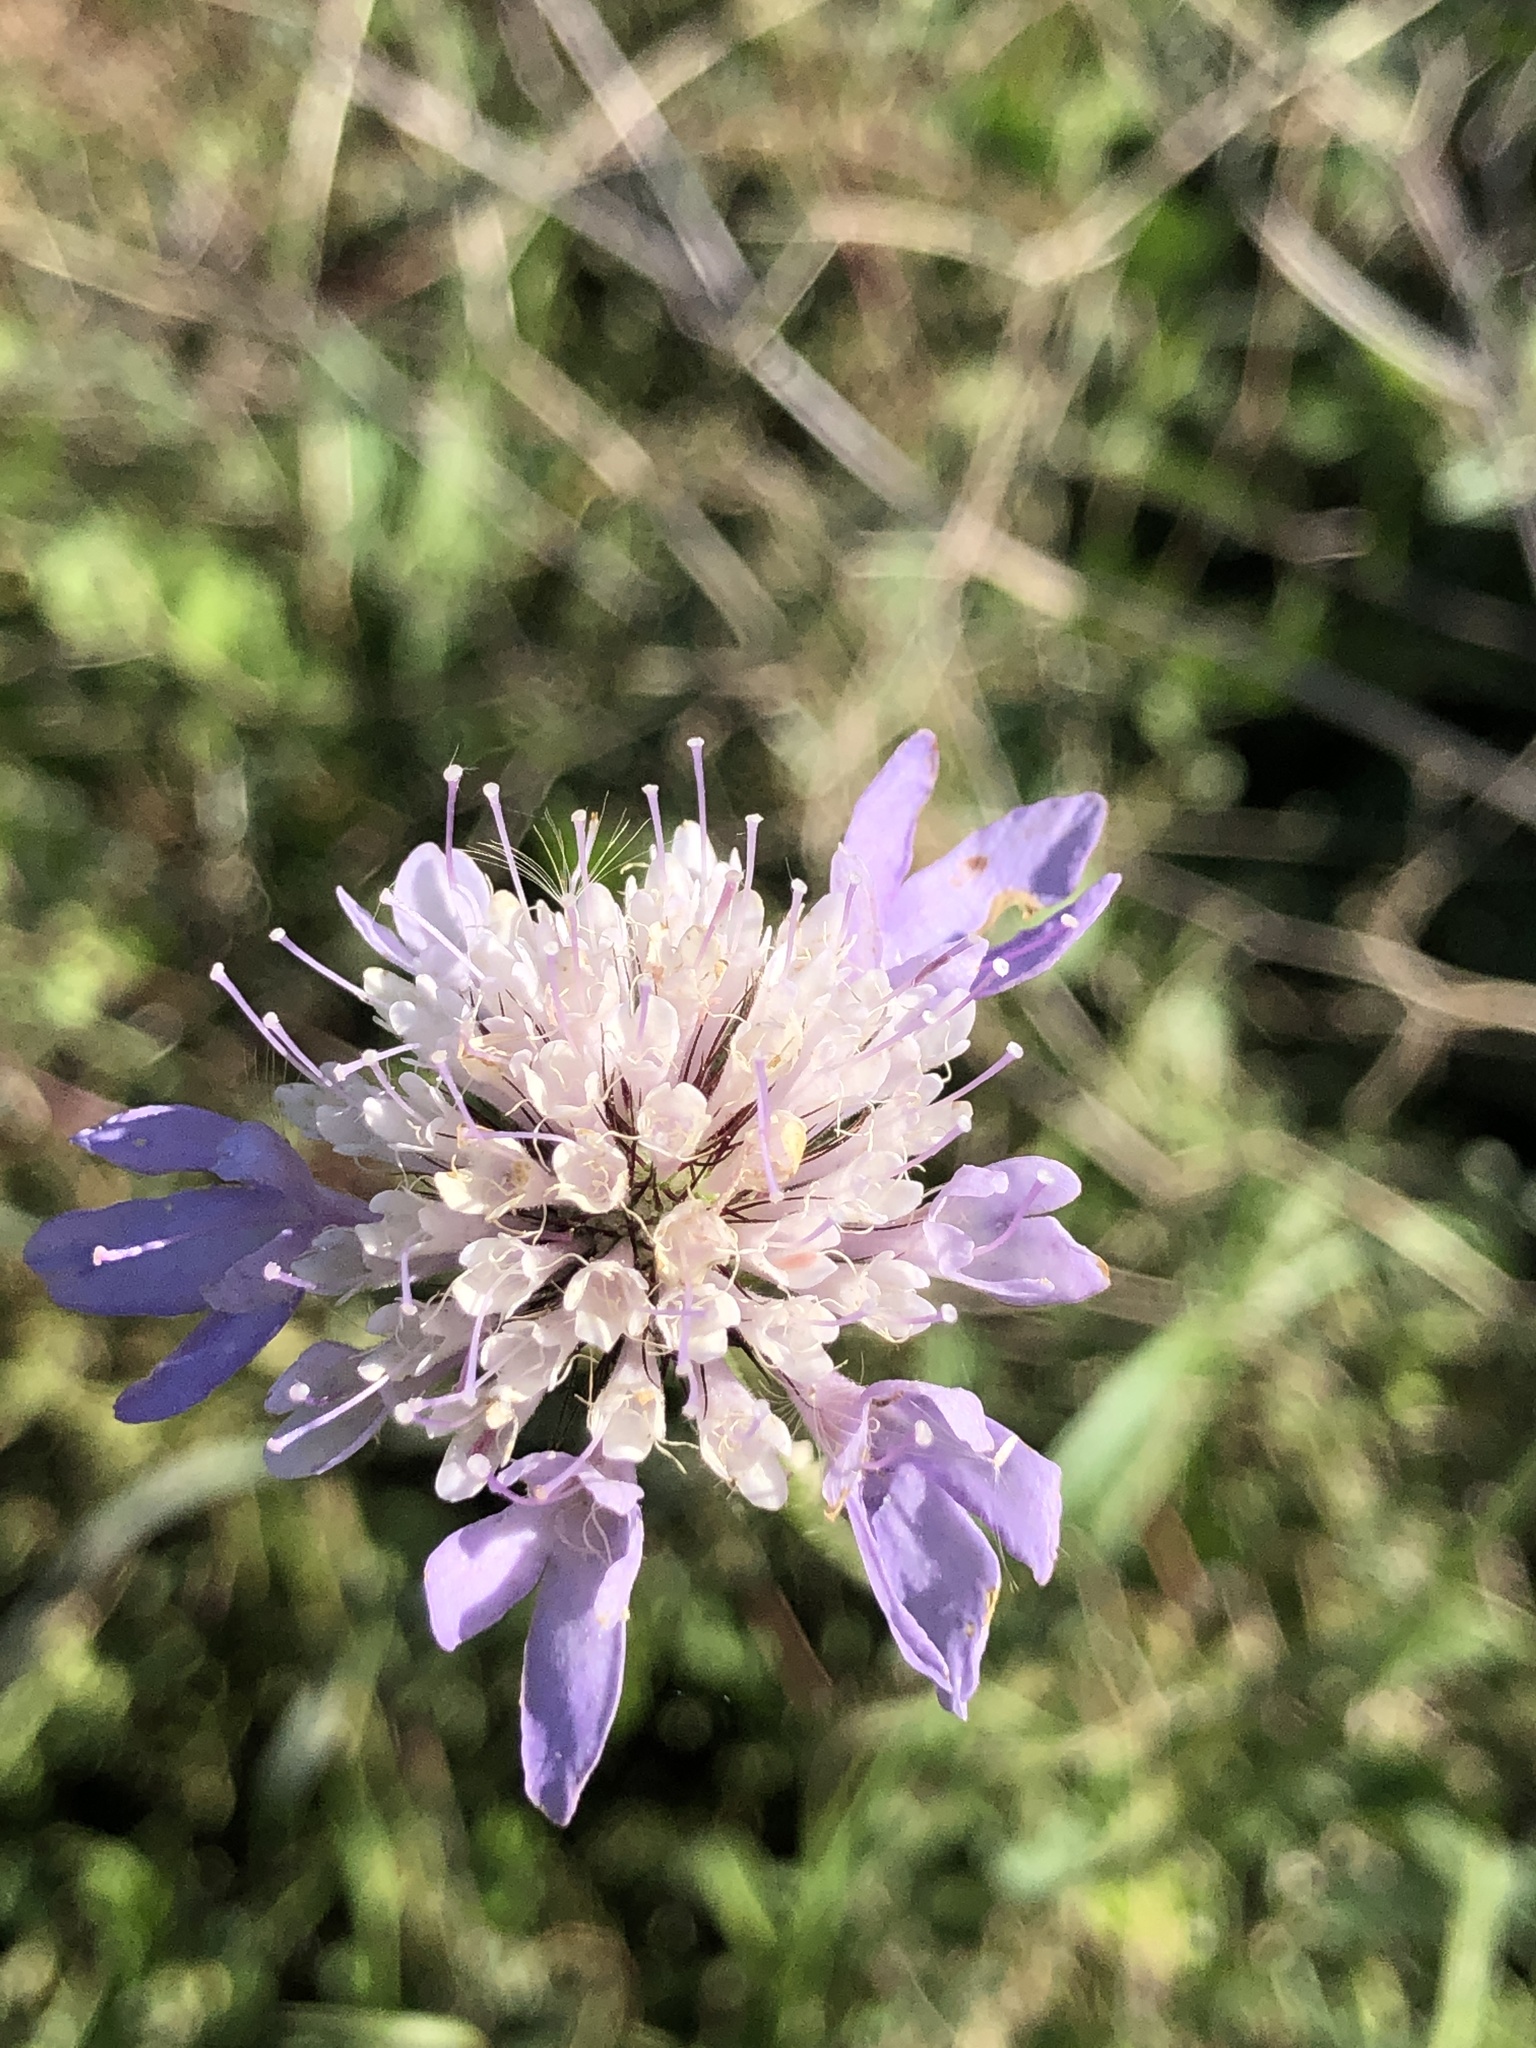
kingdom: Plantae
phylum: Tracheophyta
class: Magnoliopsida
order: Dipsacales
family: Caprifoliaceae
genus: Sixalix
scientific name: Sixalix atropurpurea
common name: Sweet scabious
